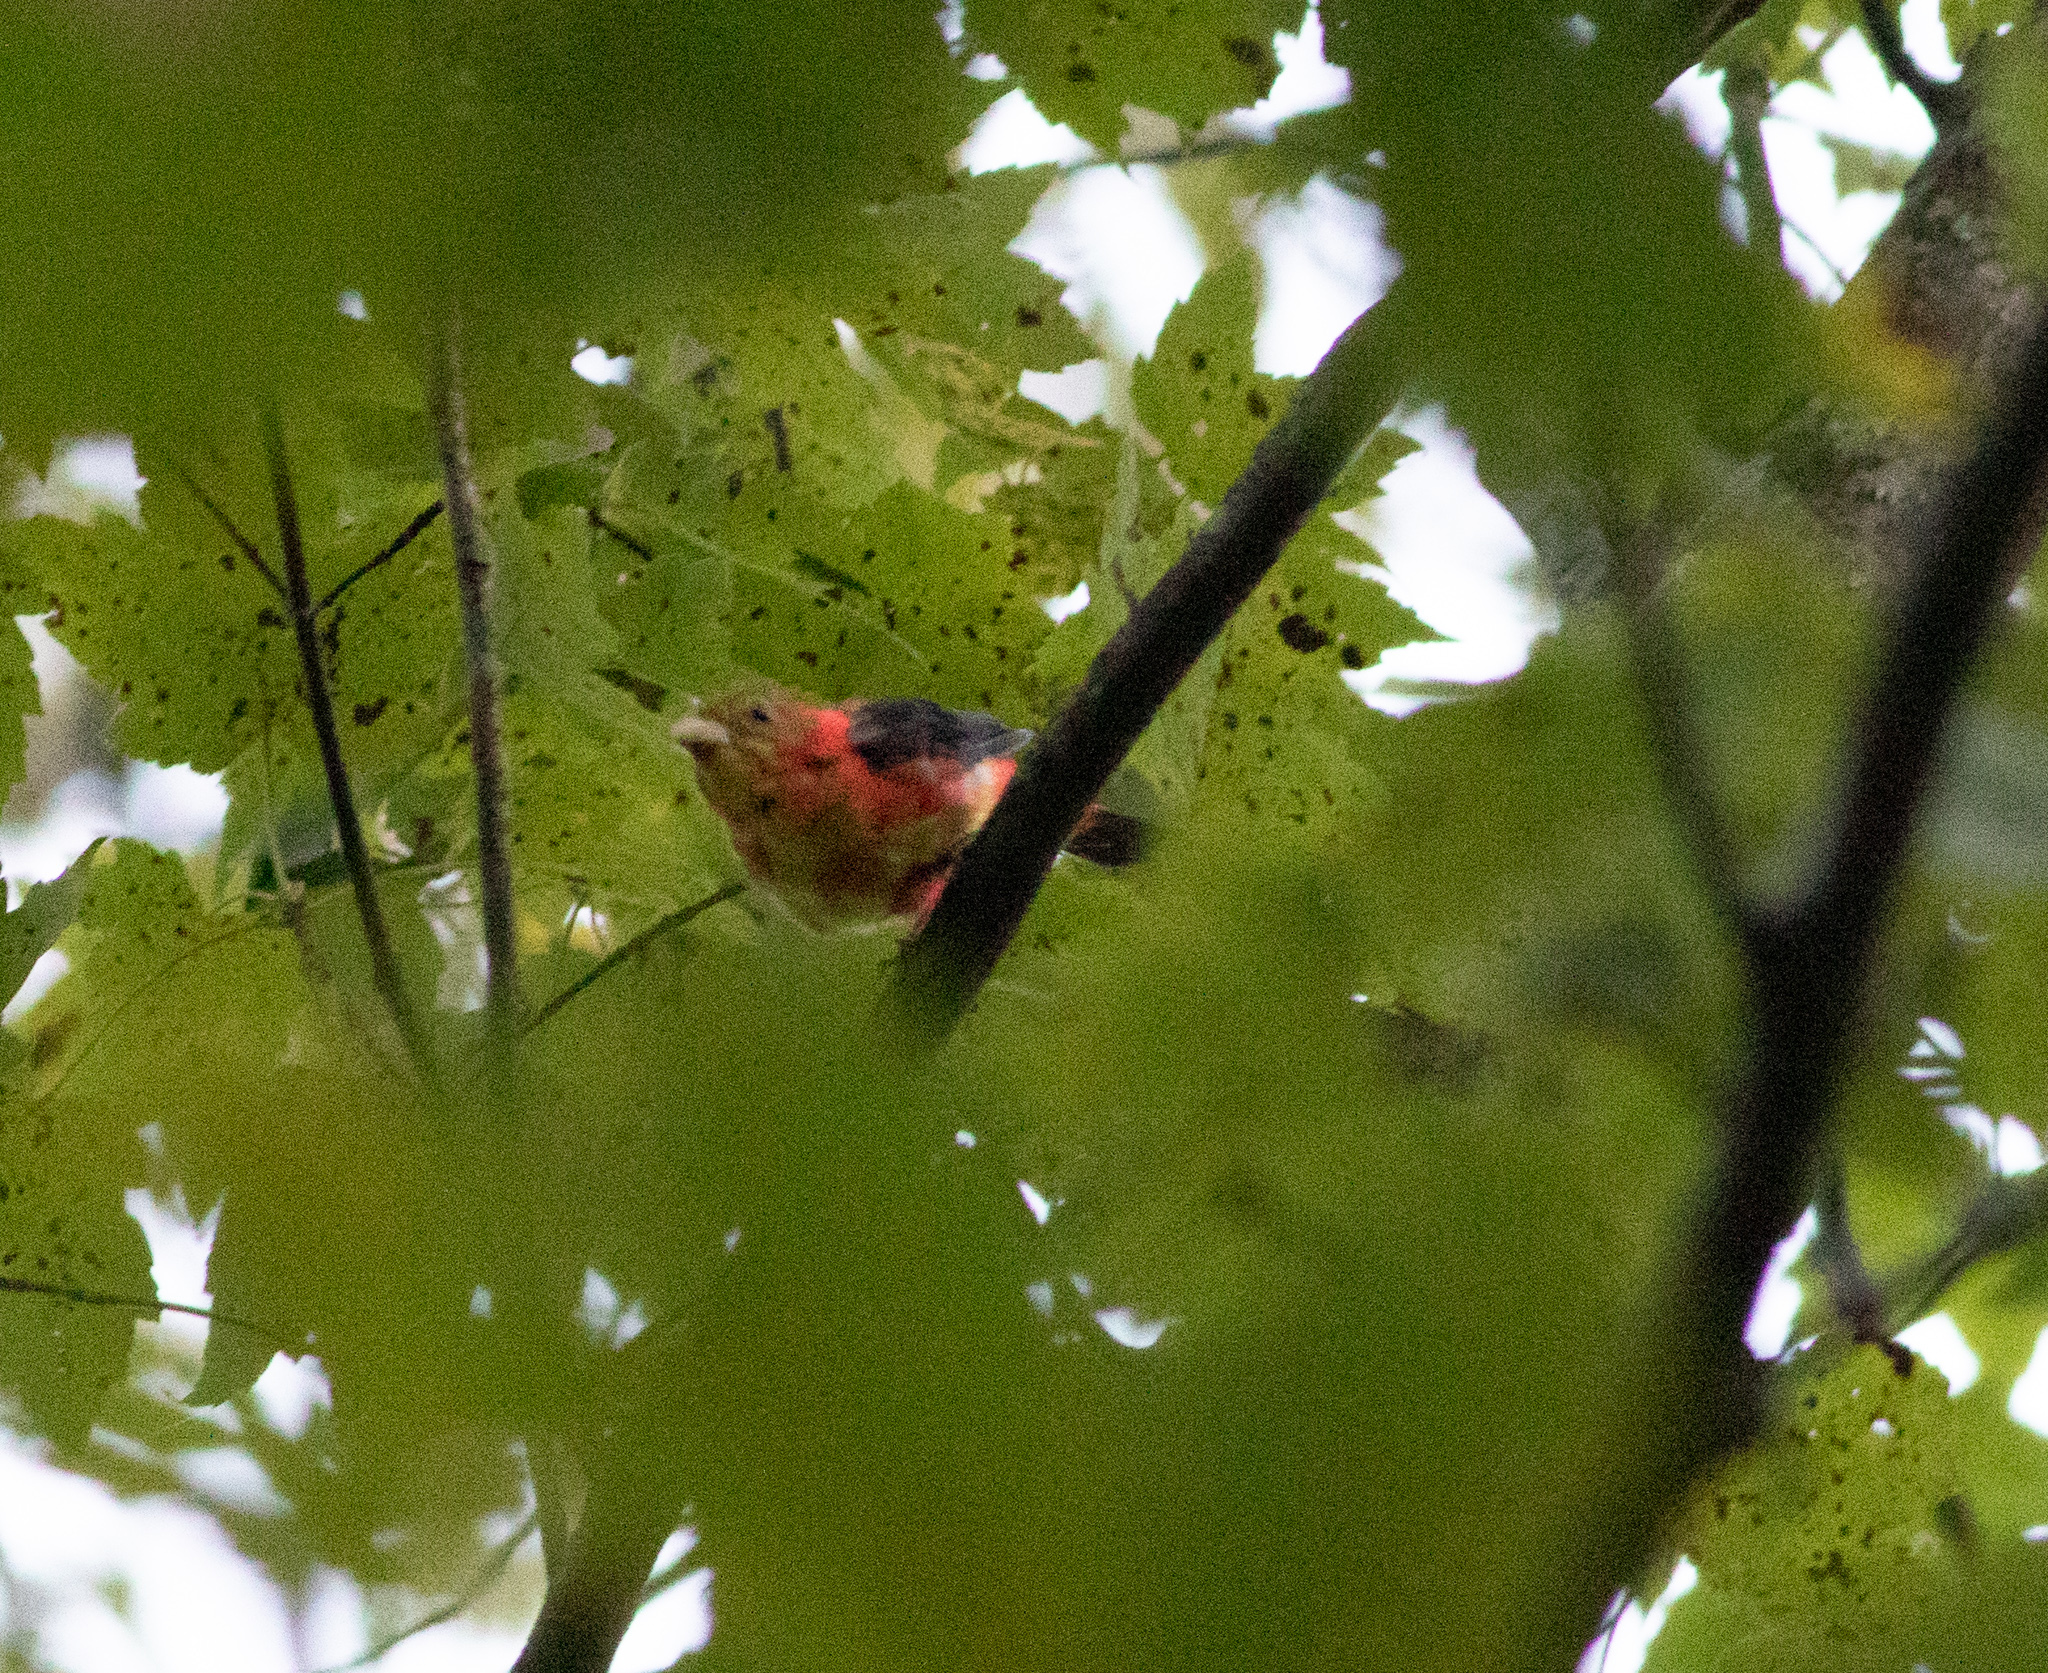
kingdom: Animalia
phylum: Chordata
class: Aves
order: Passeriformes
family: Cardinalidae
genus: Piranga
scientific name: Piranga olivacea
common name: Scarlet tanager
